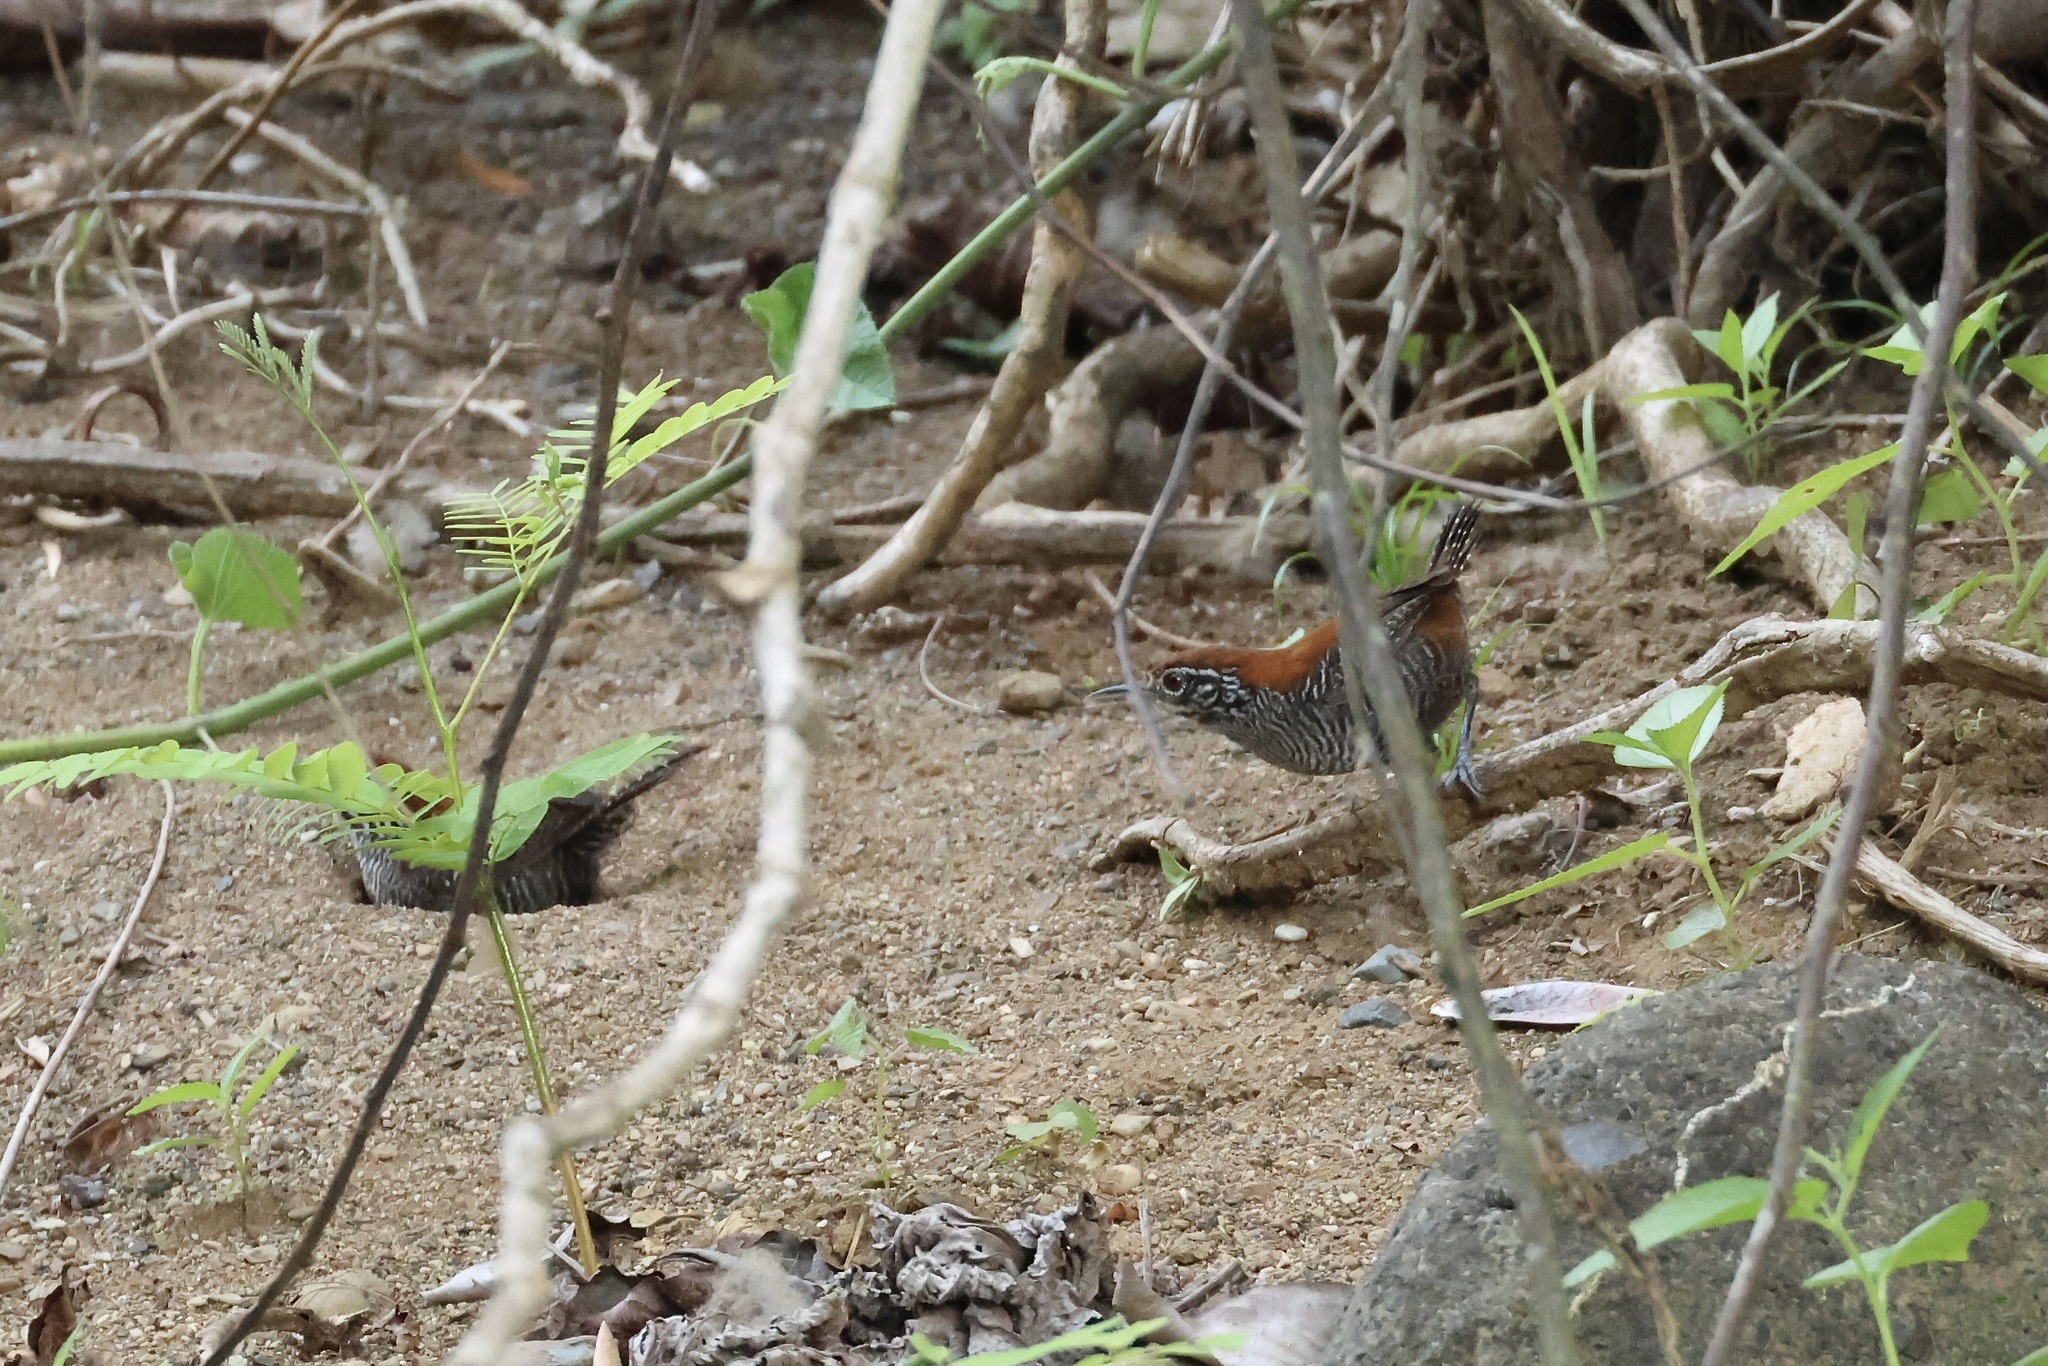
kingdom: Animalia
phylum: Chordata
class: Aves
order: Passeriformes
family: Troglodytidae
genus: Cantorchilus
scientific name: Cantorchilus semibadius
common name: Riverside wren
